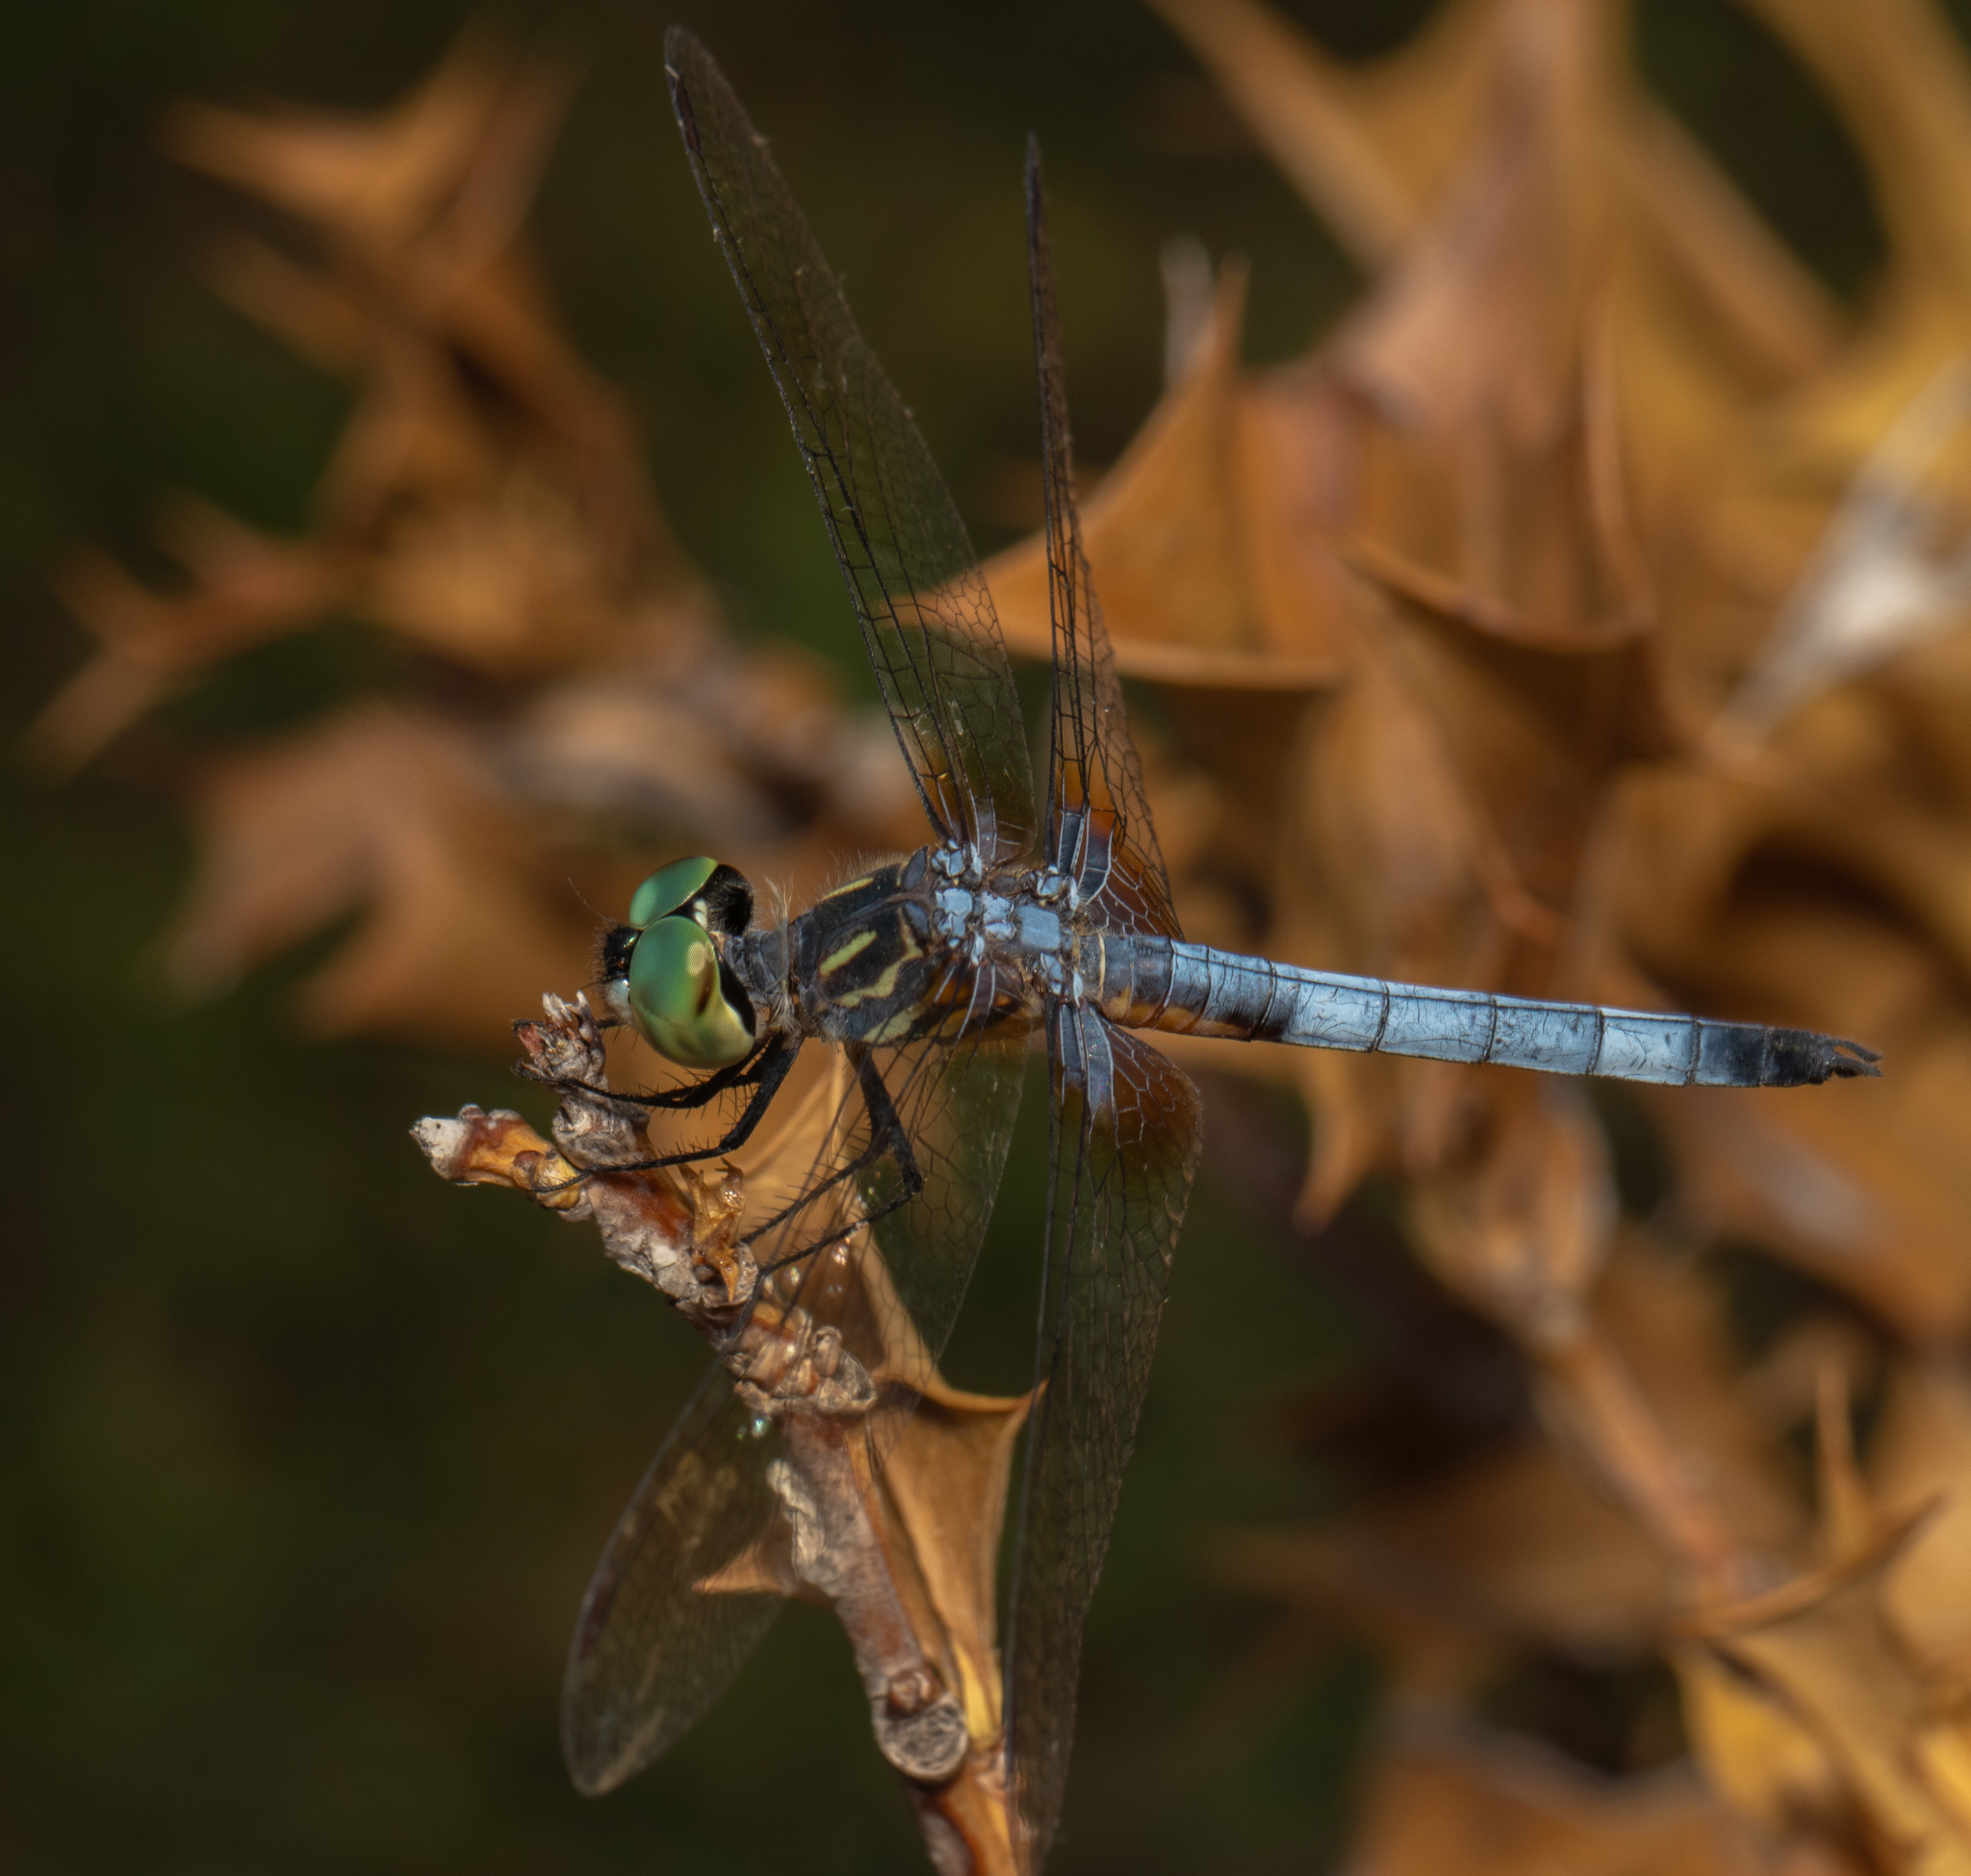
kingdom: Animalia
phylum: Arthropoda
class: Insecta
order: Odonata
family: Libellulidae
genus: Pachydiplax
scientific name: Pachydiplax longipennis
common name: Blue dasher
